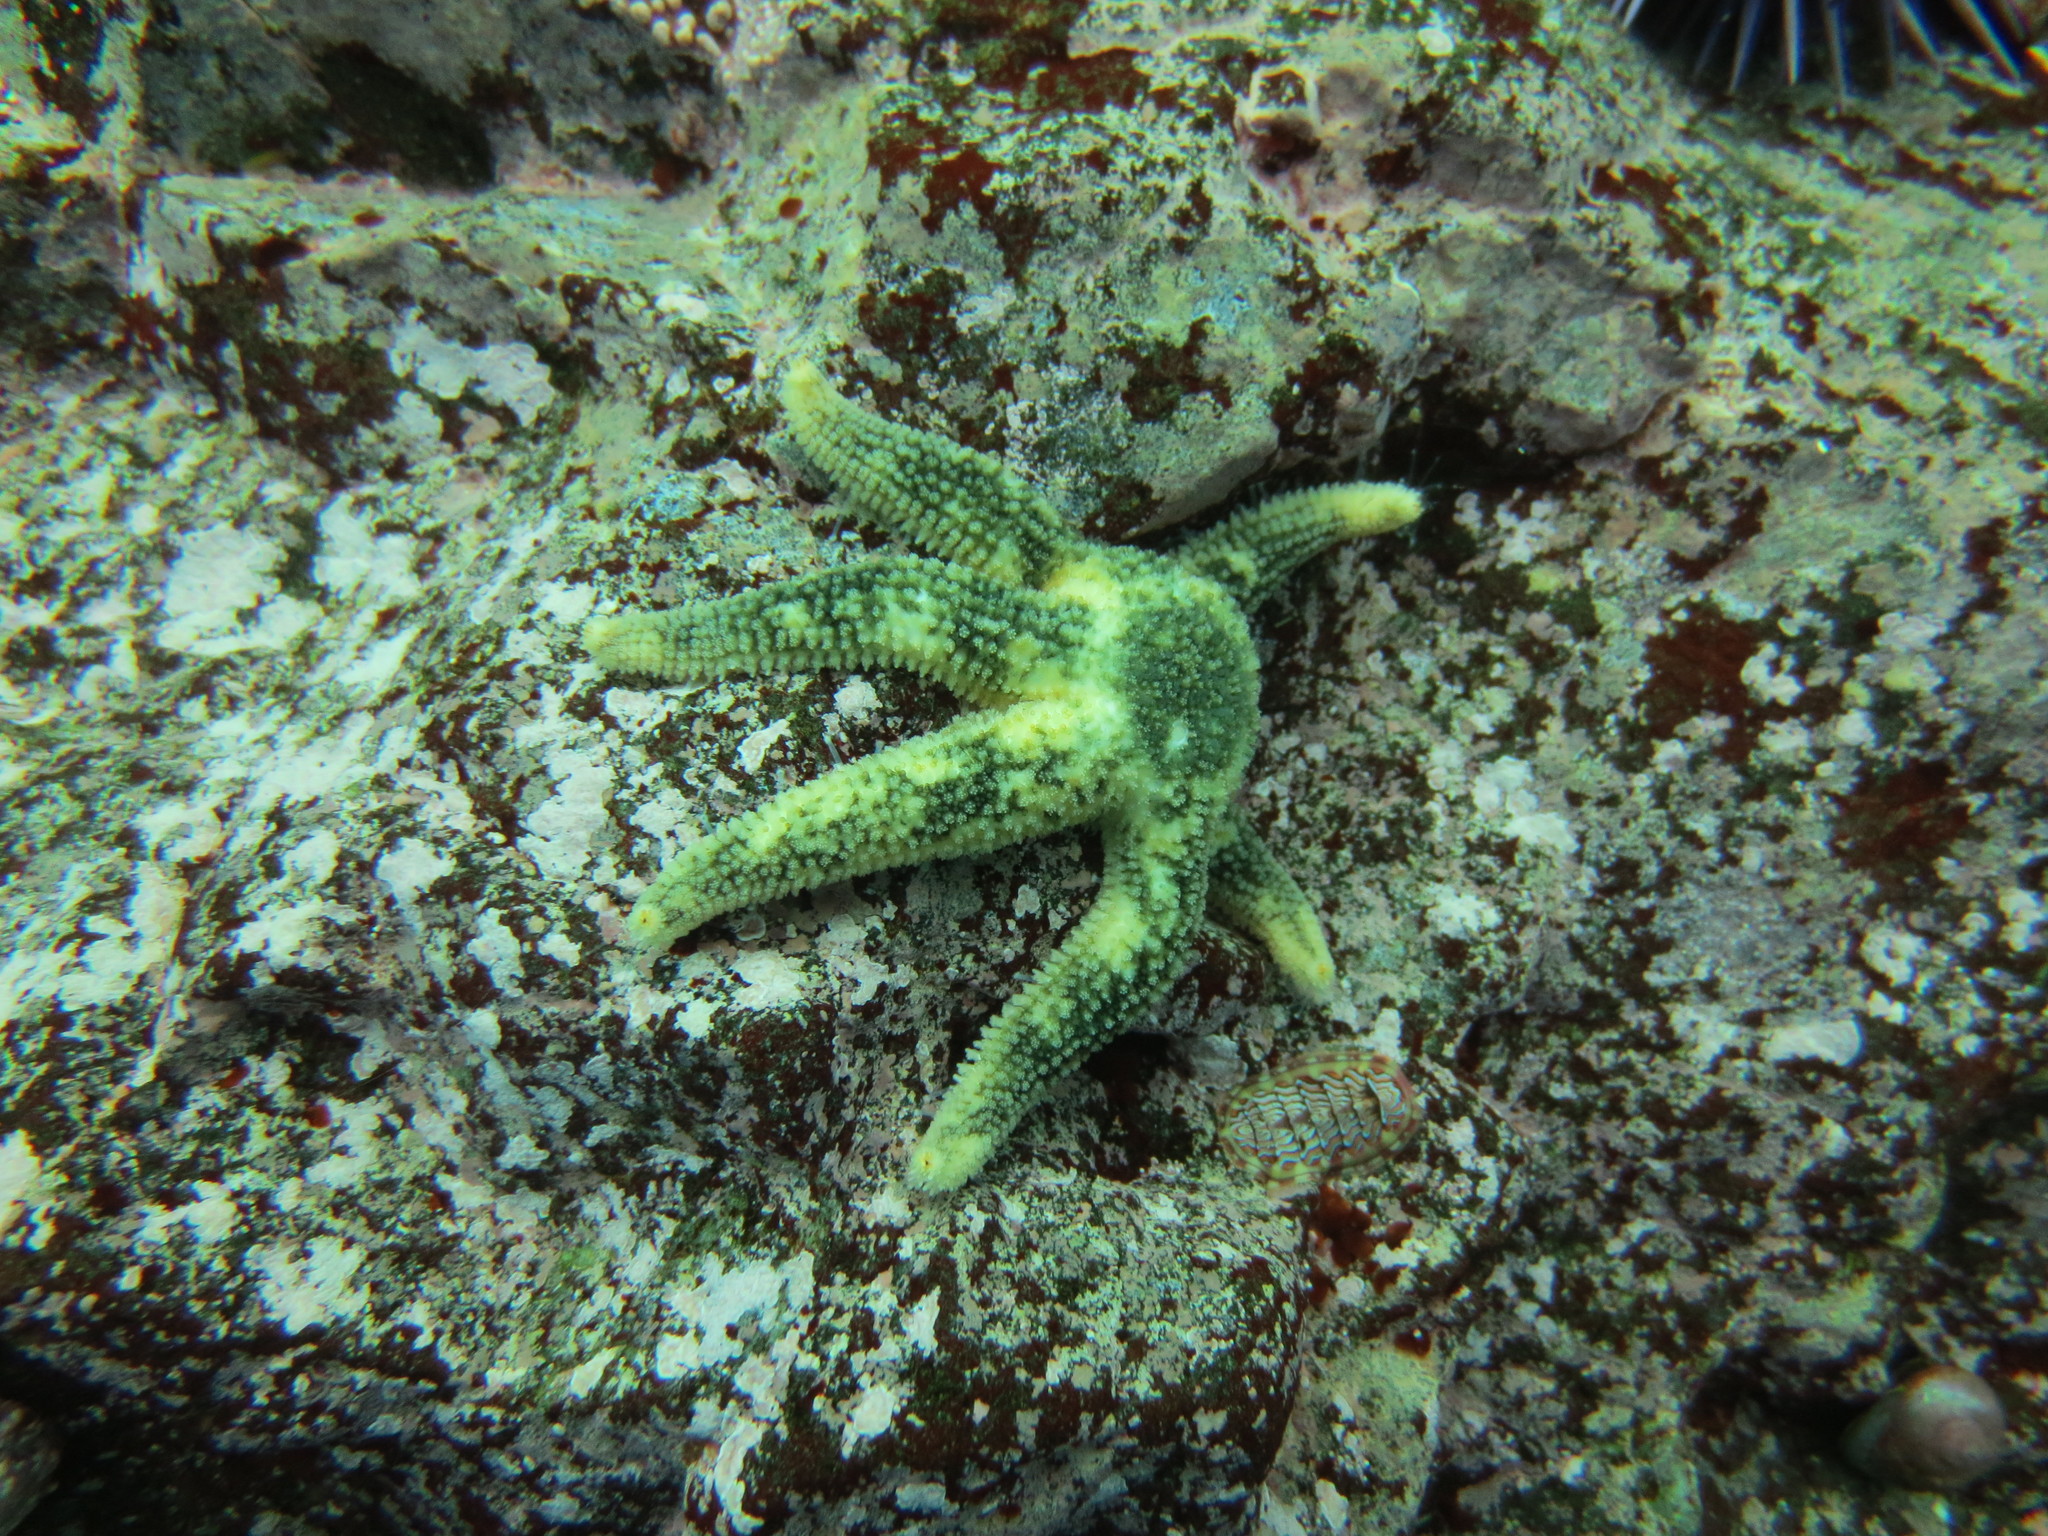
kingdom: Animalia
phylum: Echinodermata
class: Asteroidea
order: Forcipulatida
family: Asteriidae
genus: Leptasterias
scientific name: Leptasterias hexactis
